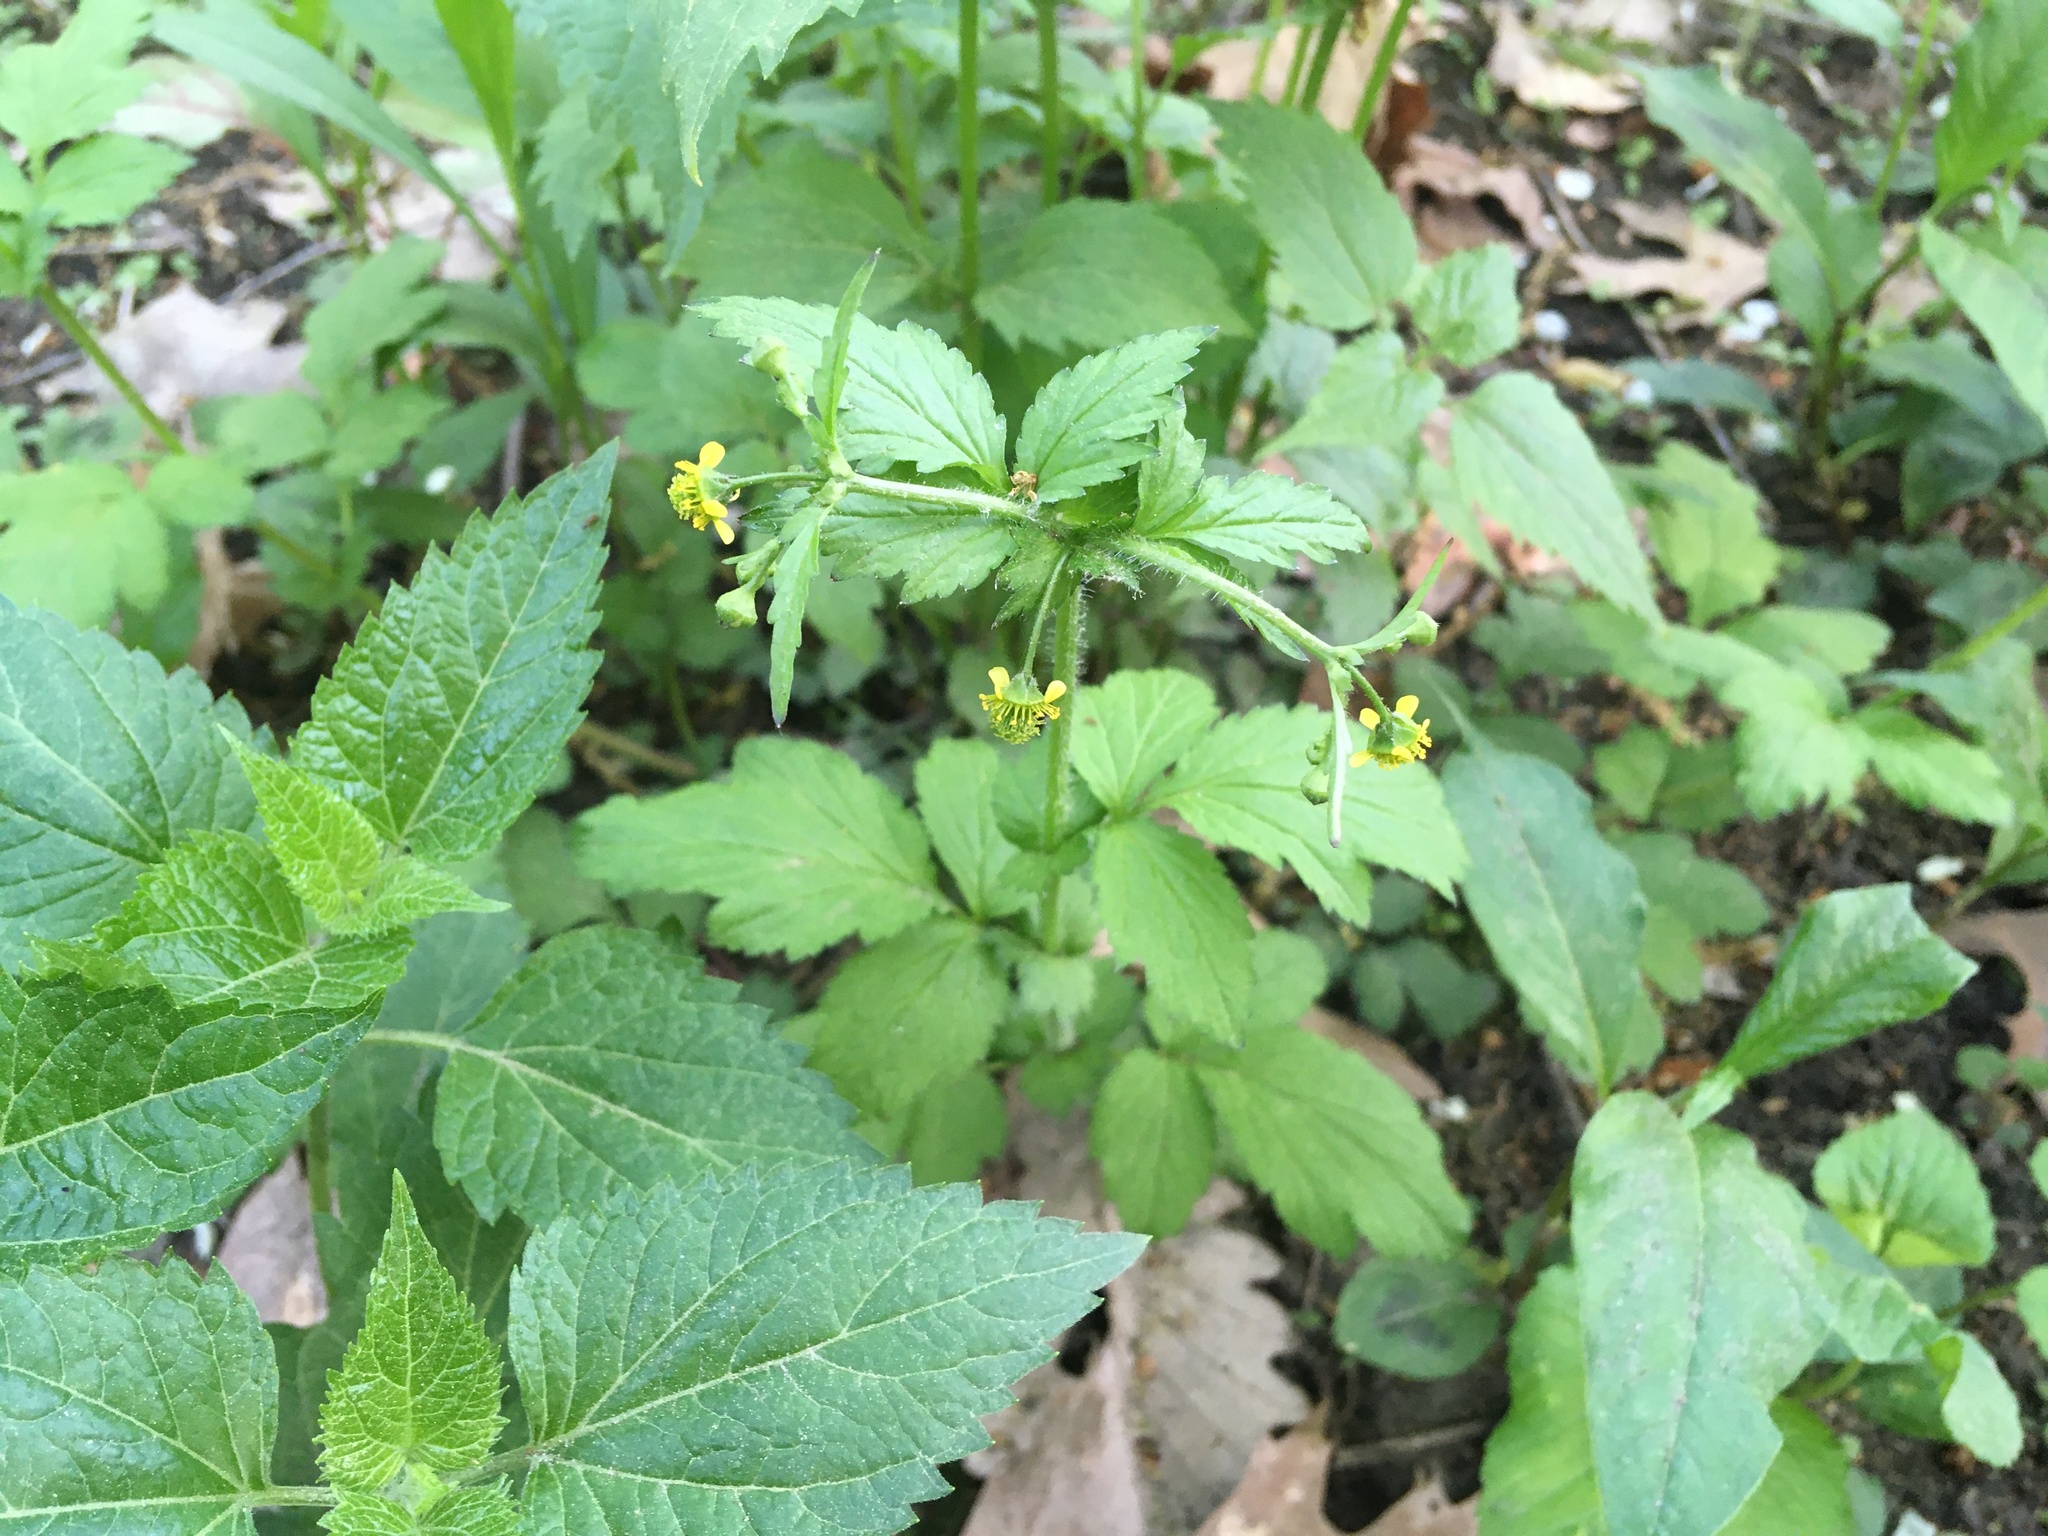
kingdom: Plantae
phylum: Tracheophyta
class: Magnoliopsida
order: Rosales
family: Rosaceae
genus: Geum
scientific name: Geum vernum
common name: Spring avens
